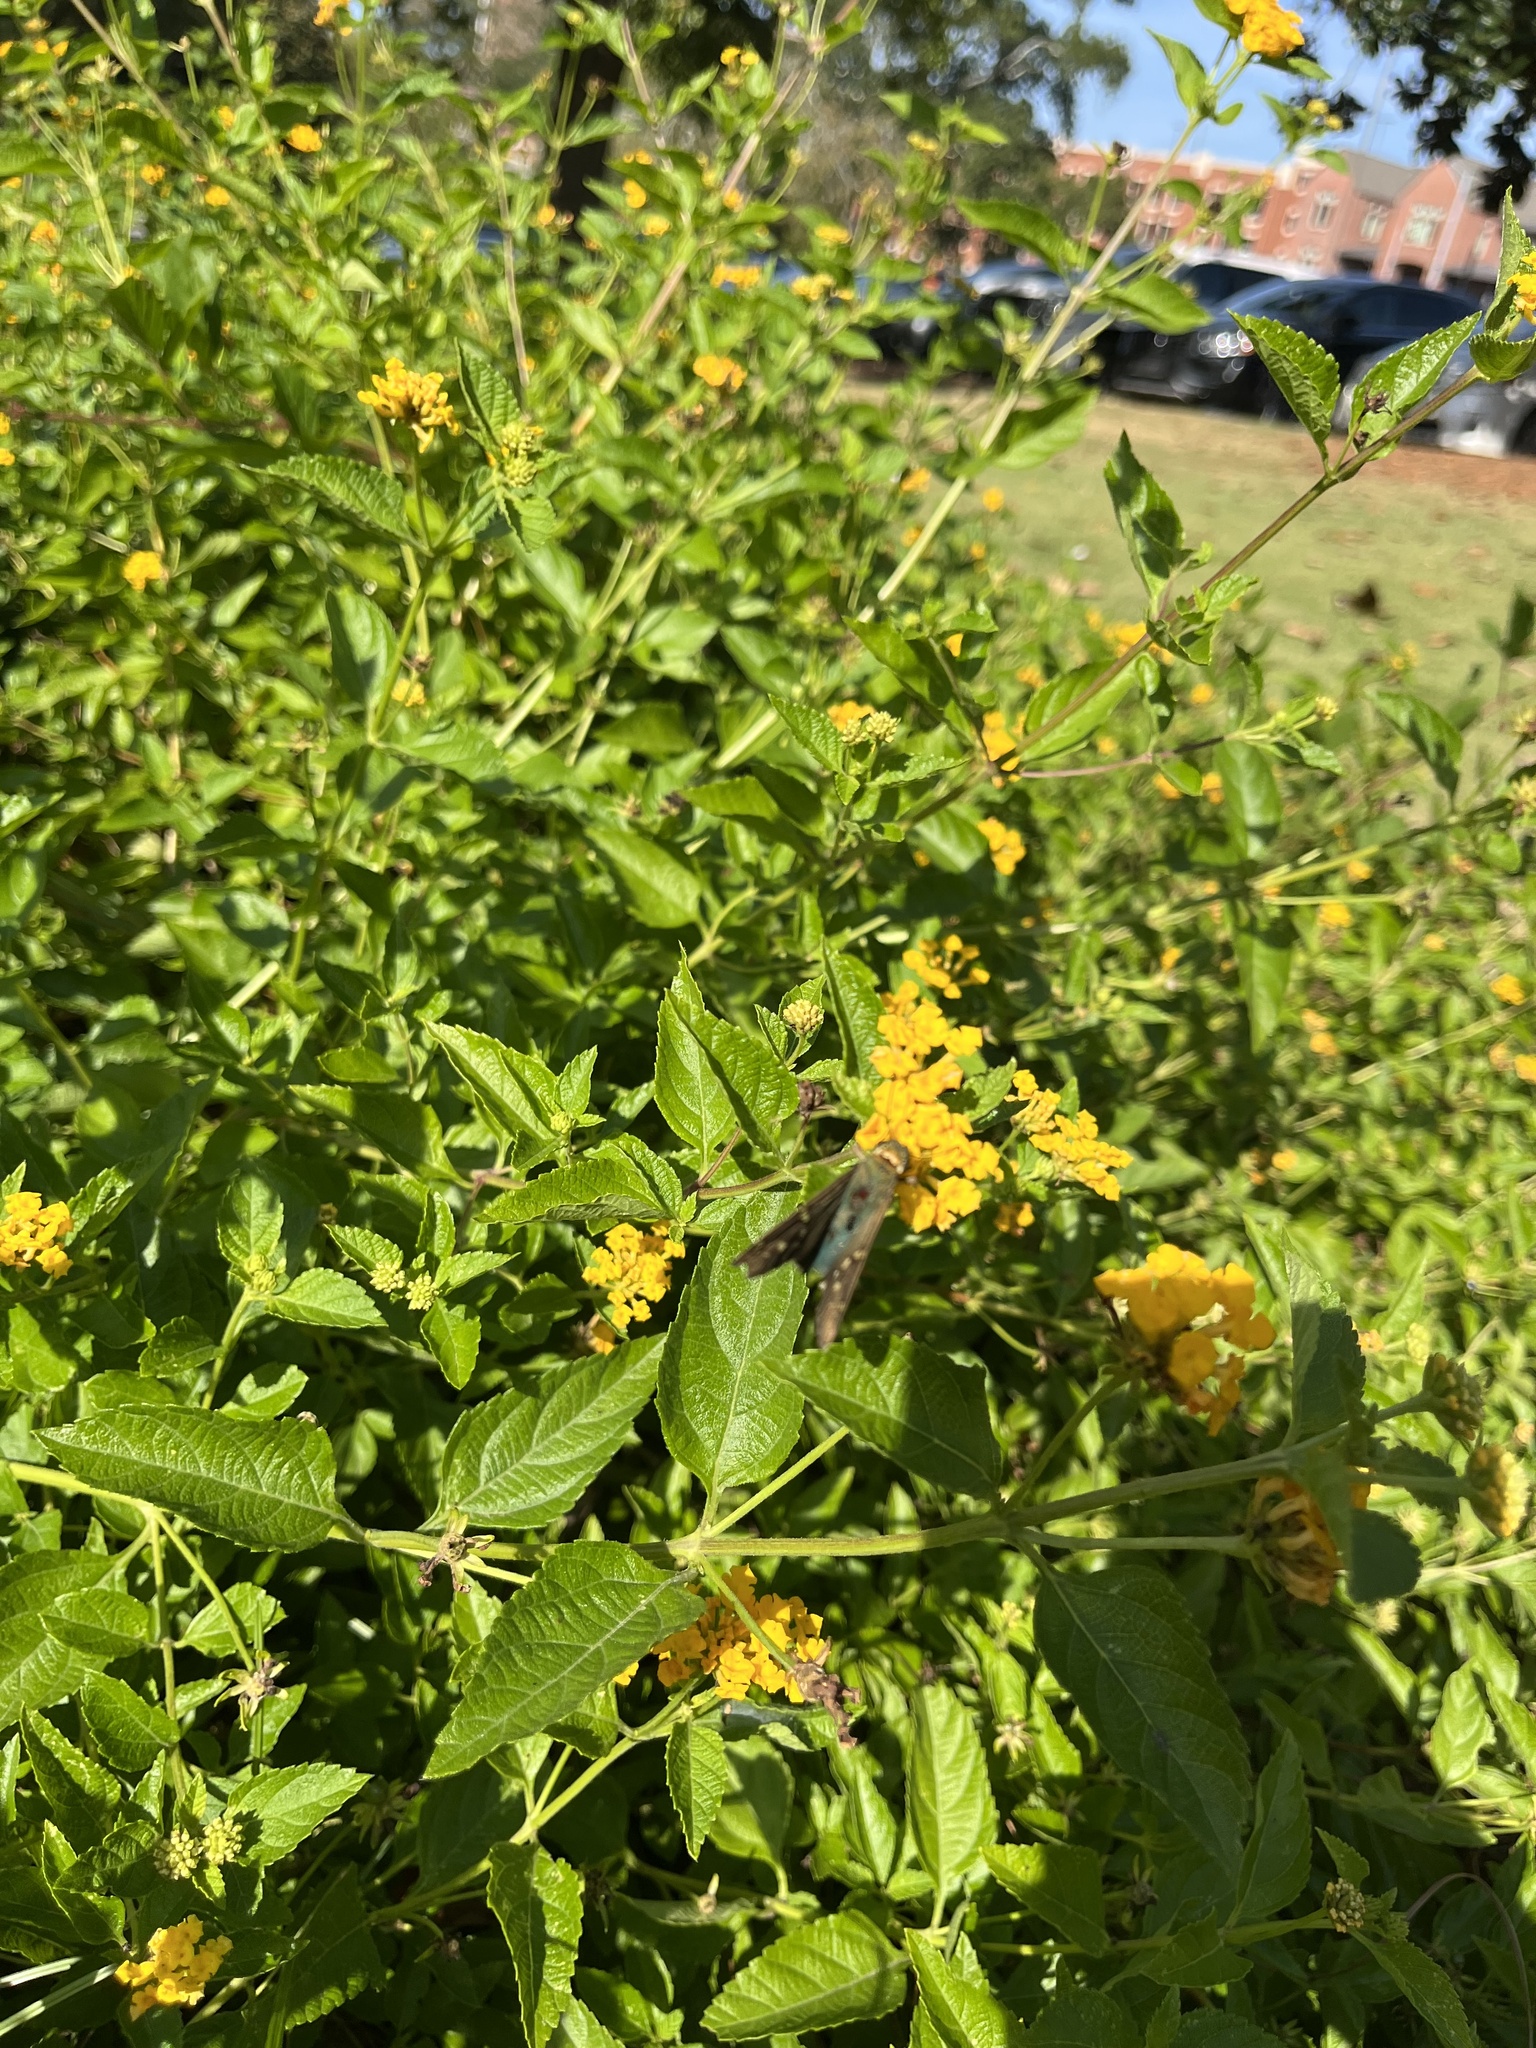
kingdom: Animalia
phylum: Arthropoda
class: Insecta
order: Lepidoptera
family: Hesperiidae
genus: Urbanus
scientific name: Urbanus proteus
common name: Long-tailed skipper
